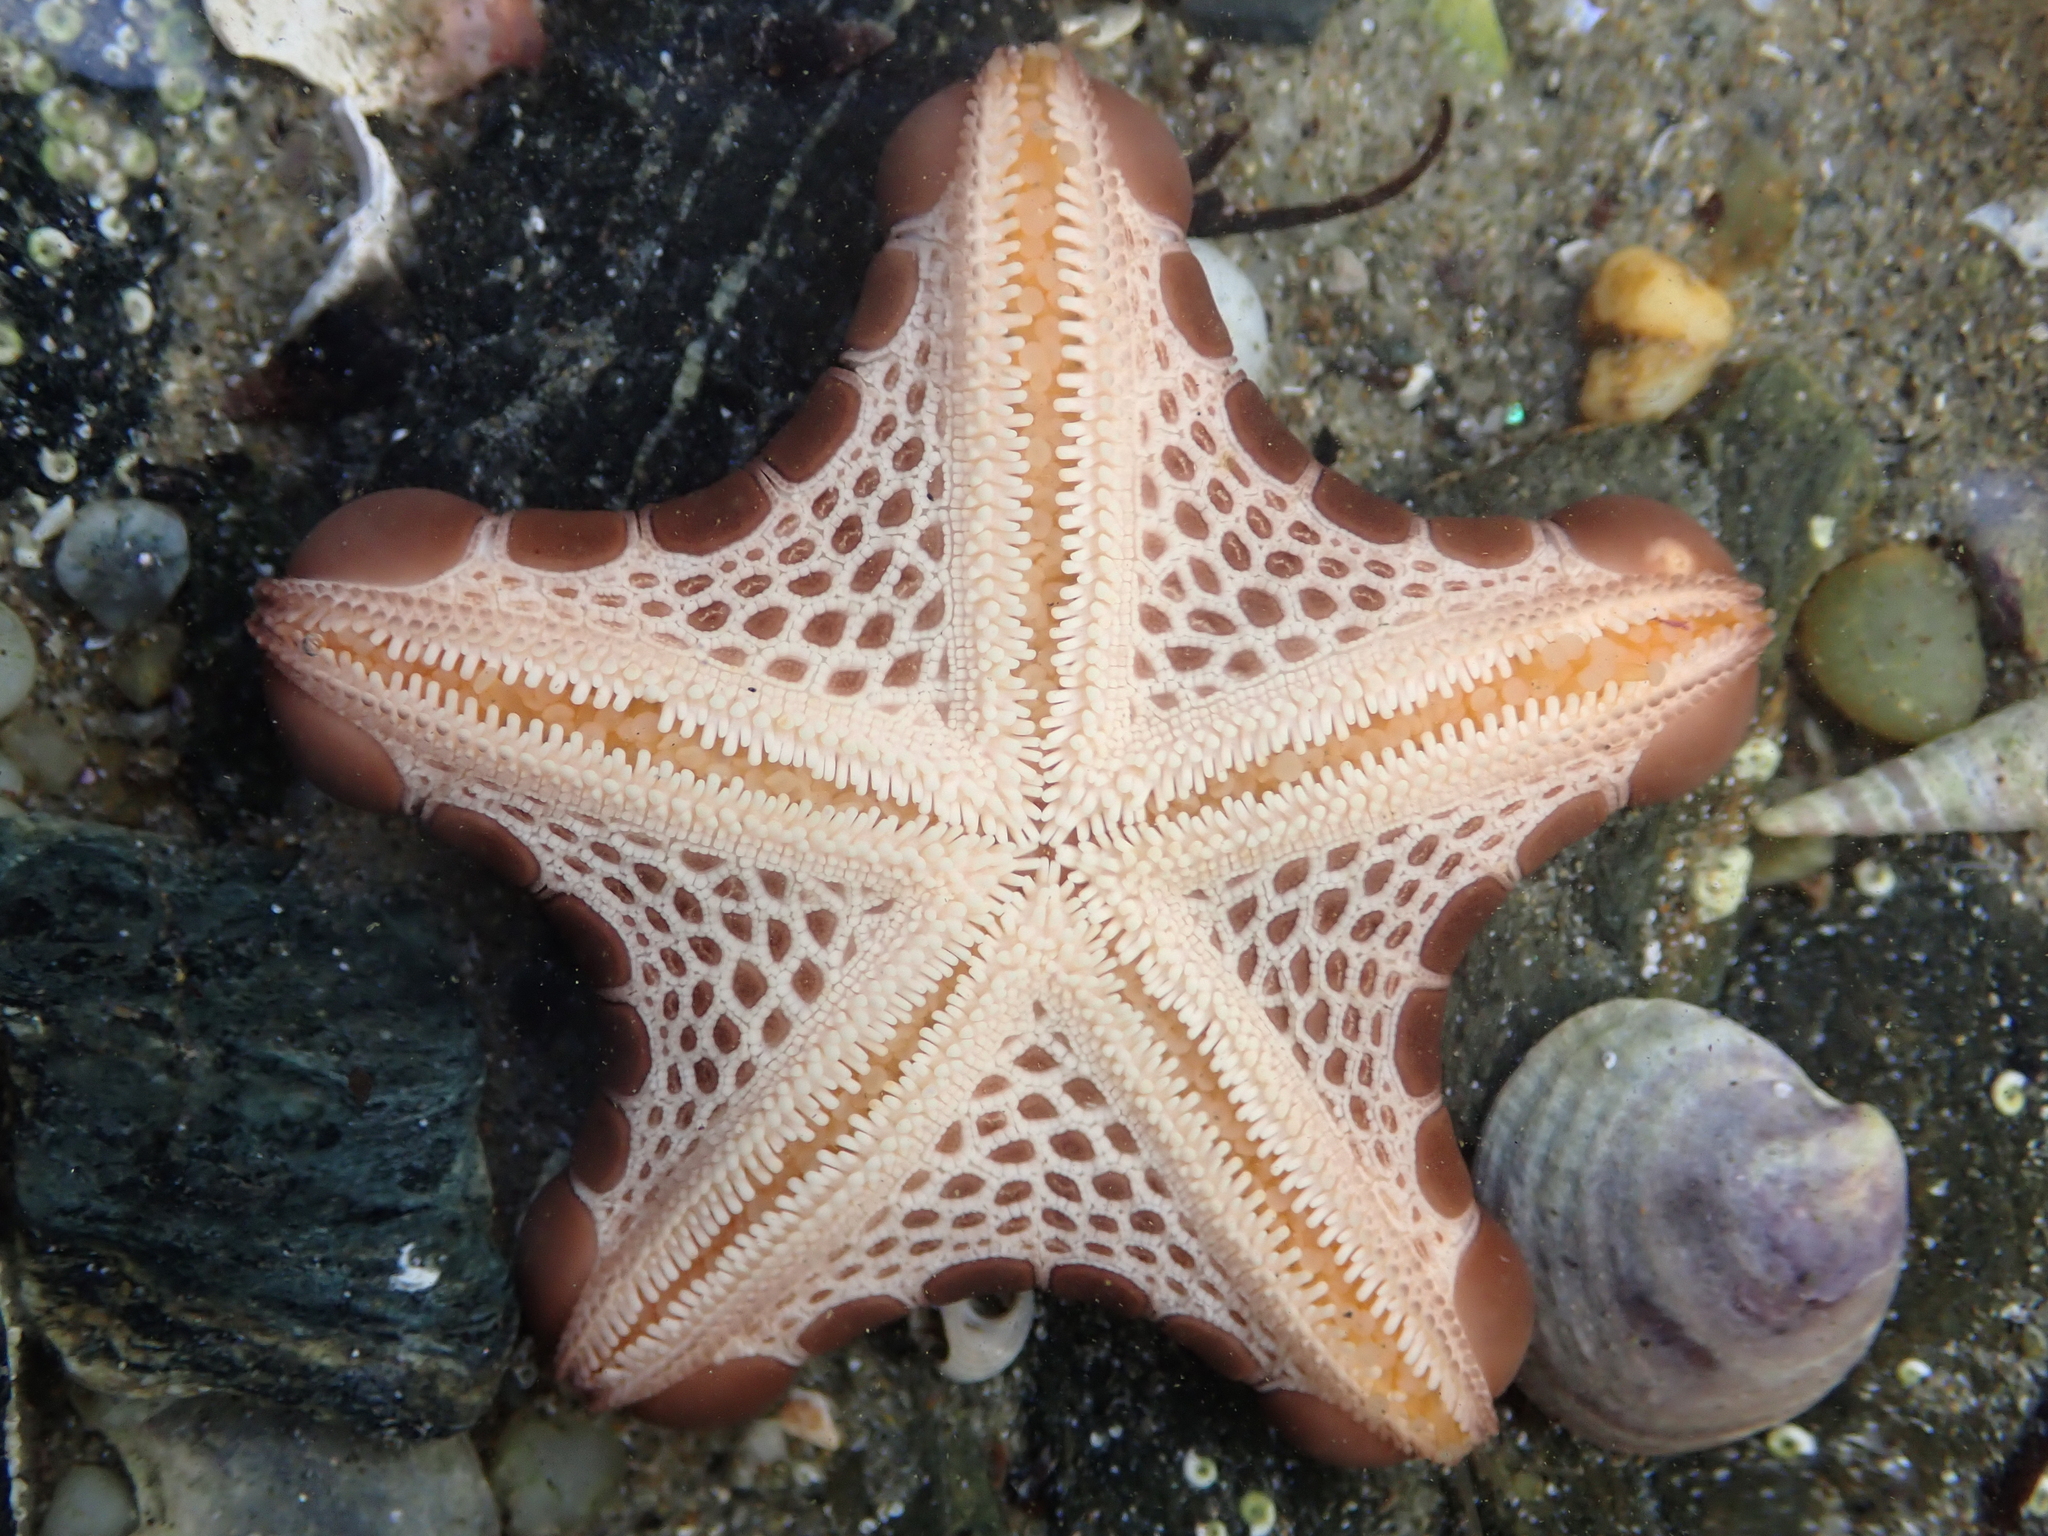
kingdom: Animalia
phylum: Echinodermata
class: Asteroidea
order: Valvatida
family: Goniasteridae
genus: Pentagonaster
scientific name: Pentagonaster pulchellus
